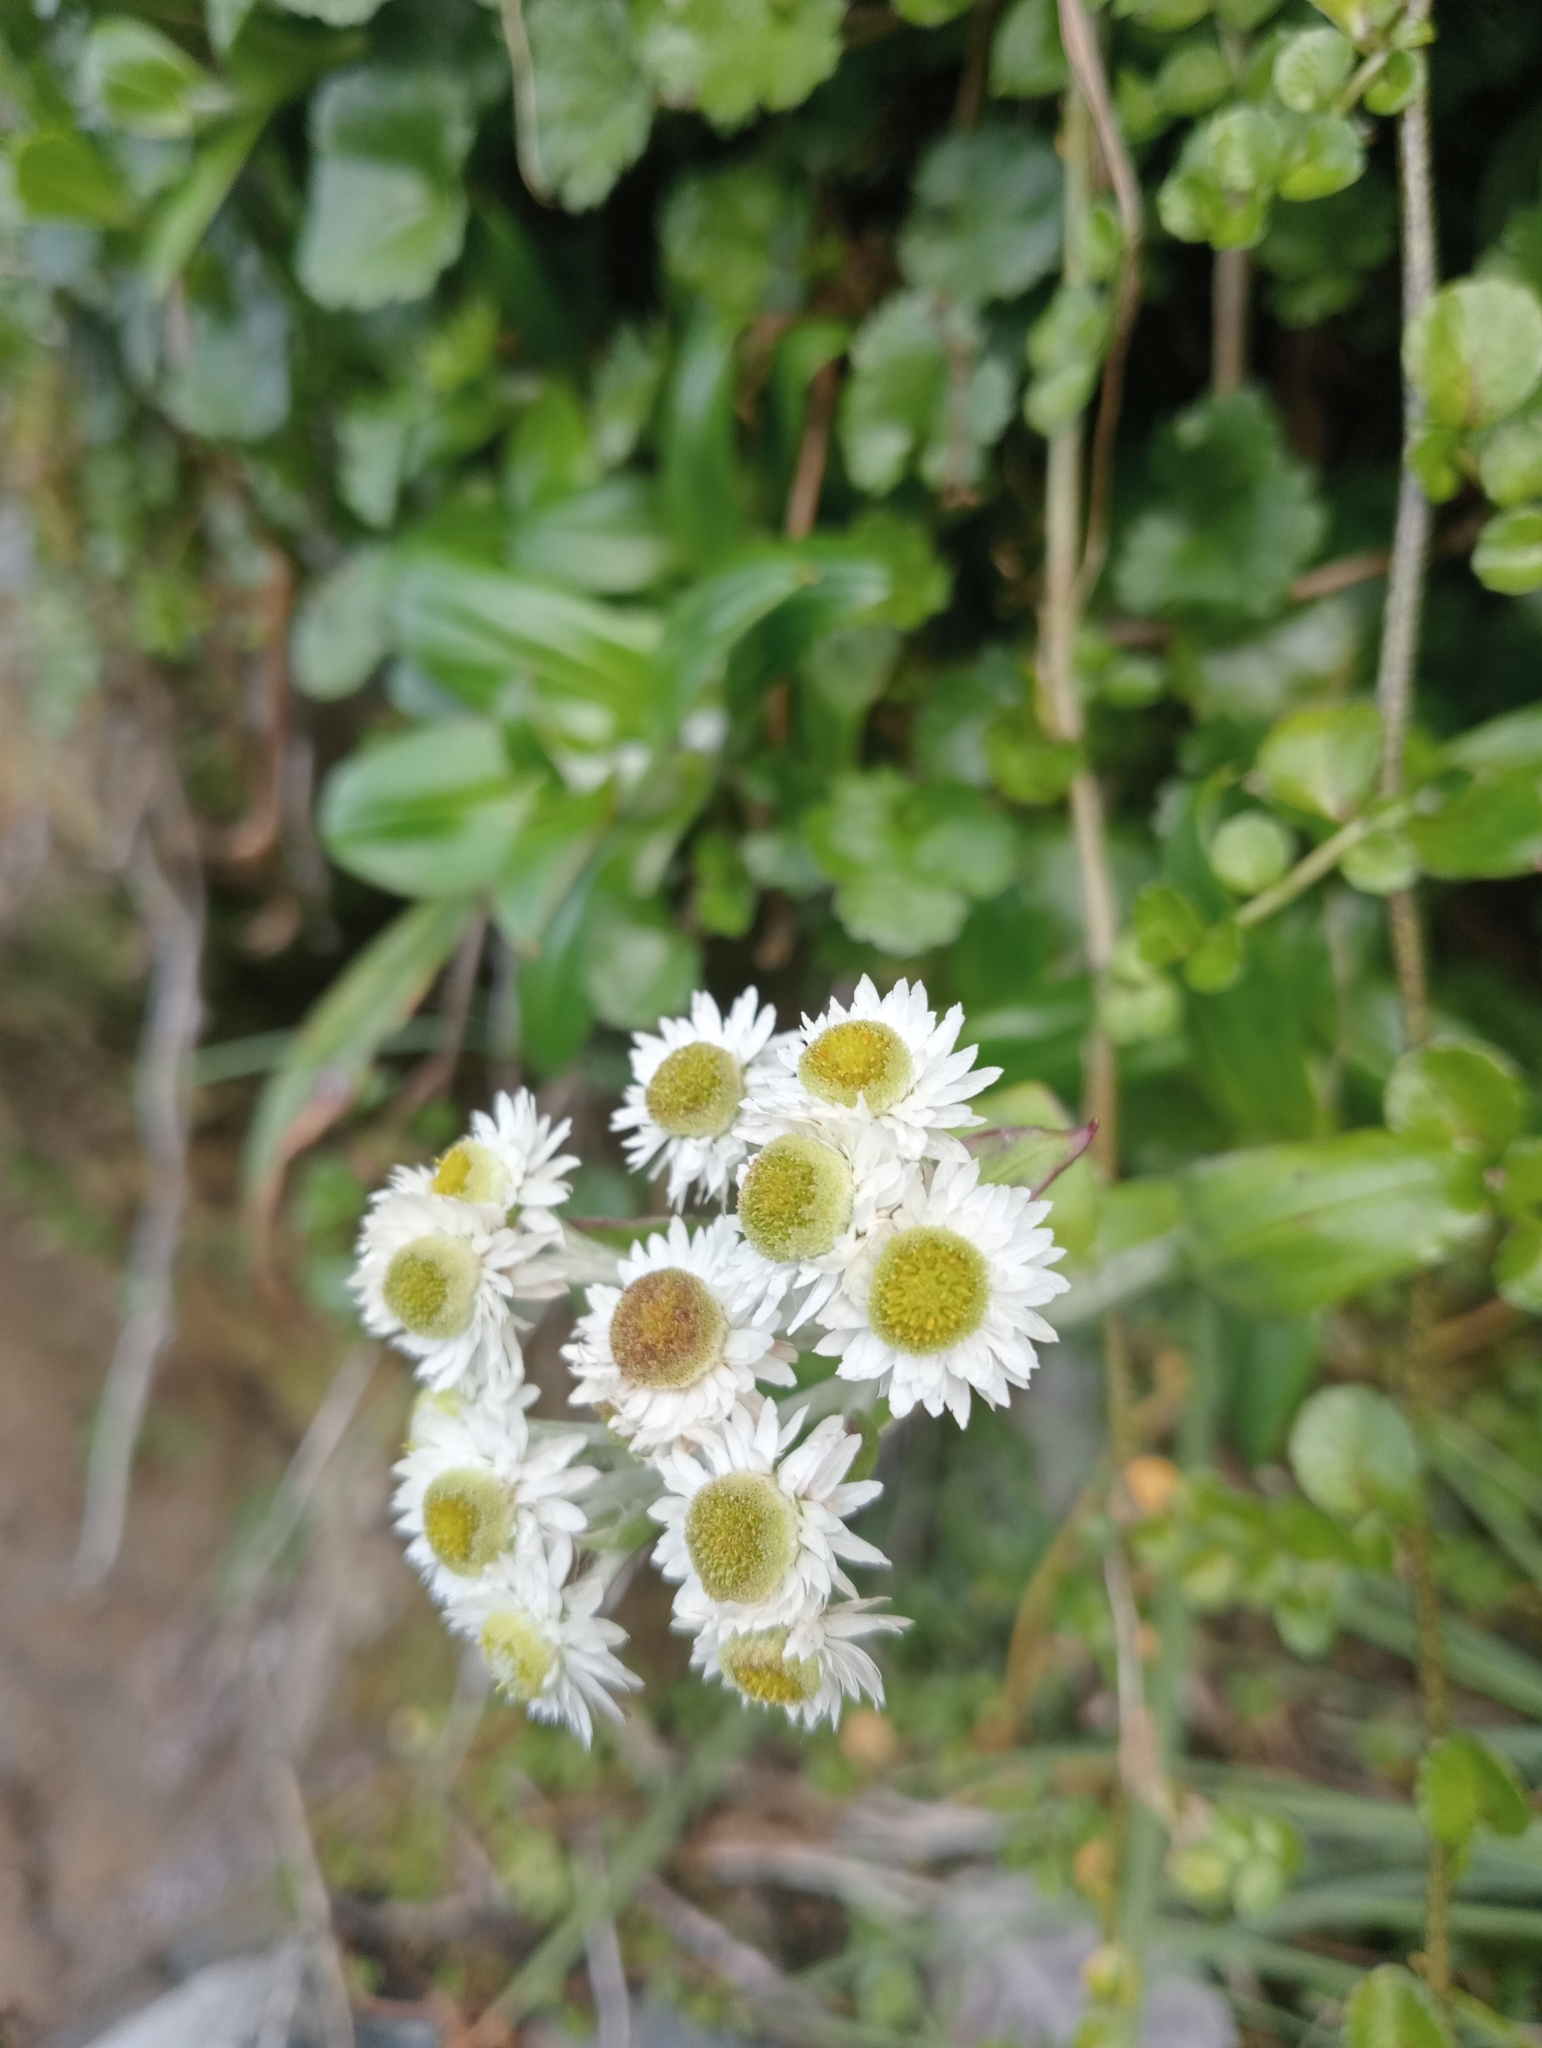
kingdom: Plantae
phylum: Tracheophyta
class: Magnoliopsida
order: Asterales
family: Asteraceae
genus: Anaphalioides
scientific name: Anaphalioides trinervis
